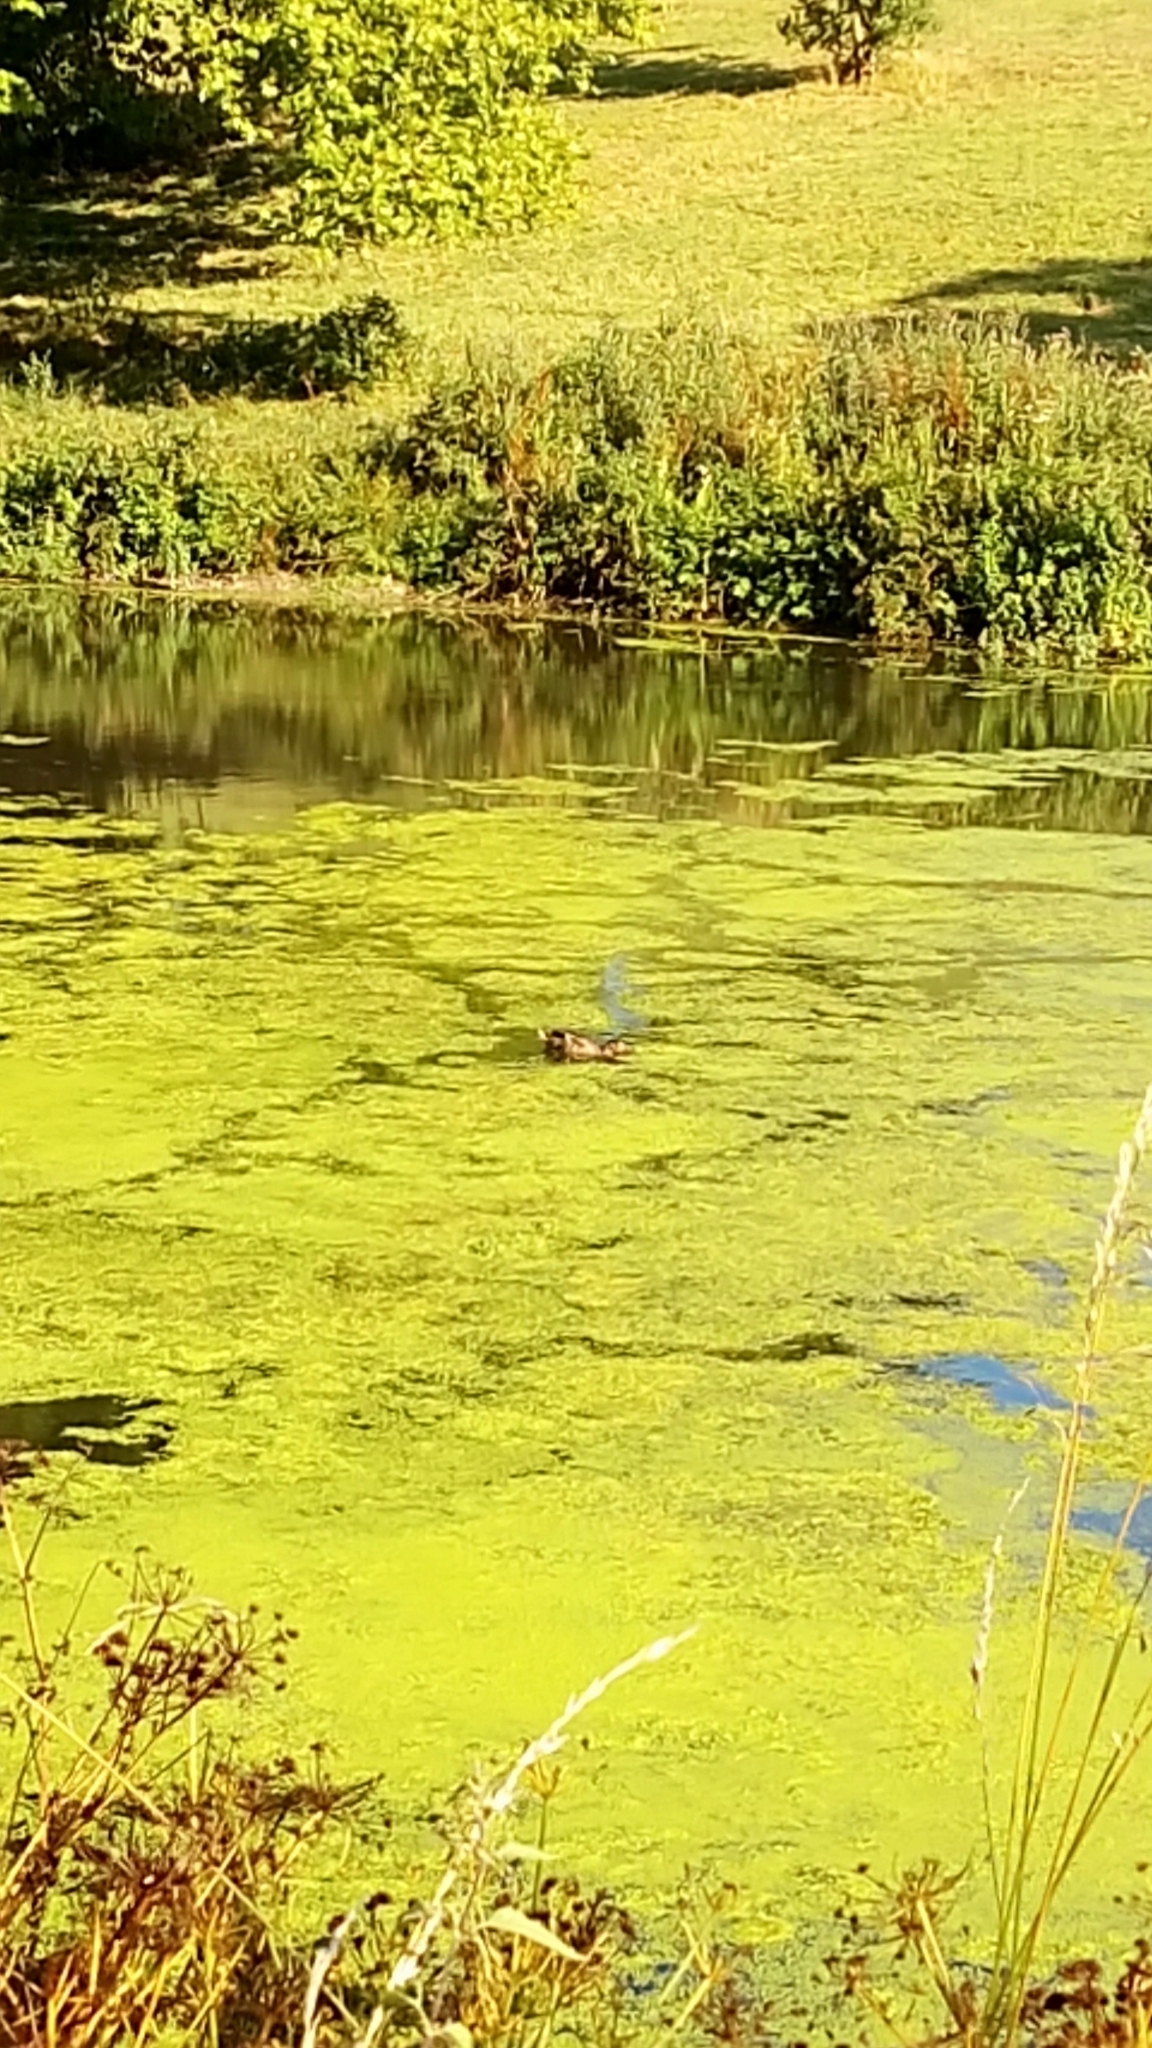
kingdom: Animalia
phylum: Chordata
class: Aves
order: Anseriformes
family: Anatidae
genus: Anas
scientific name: Anas platyrhynchos
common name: Mallard
